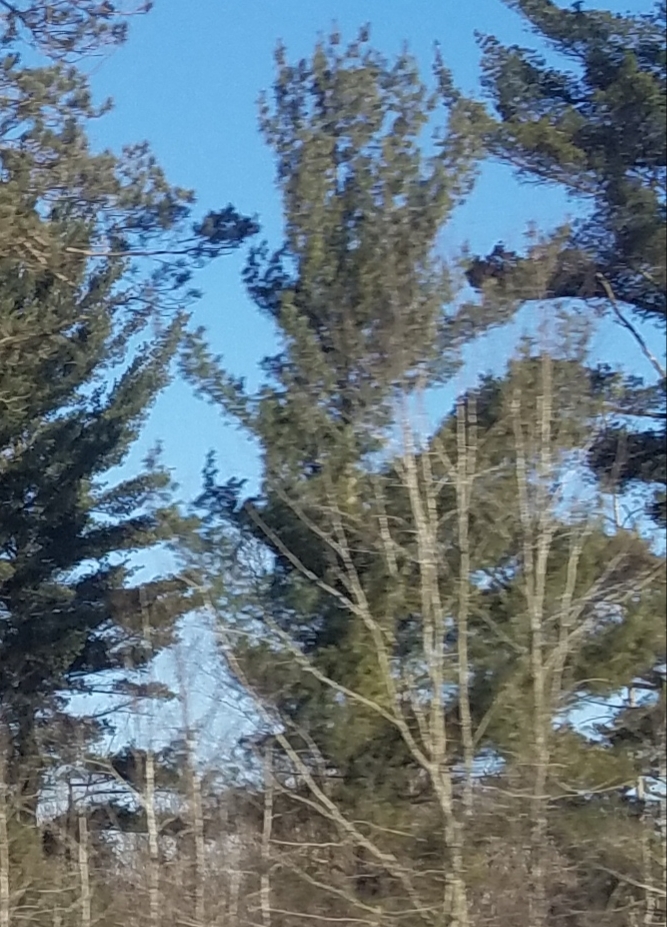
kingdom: Plantae
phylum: Tracheophyta
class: Pinopsida
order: Pinales
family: Pinaceae
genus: Pinus
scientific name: Pinus strobus
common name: Weymouth pine
